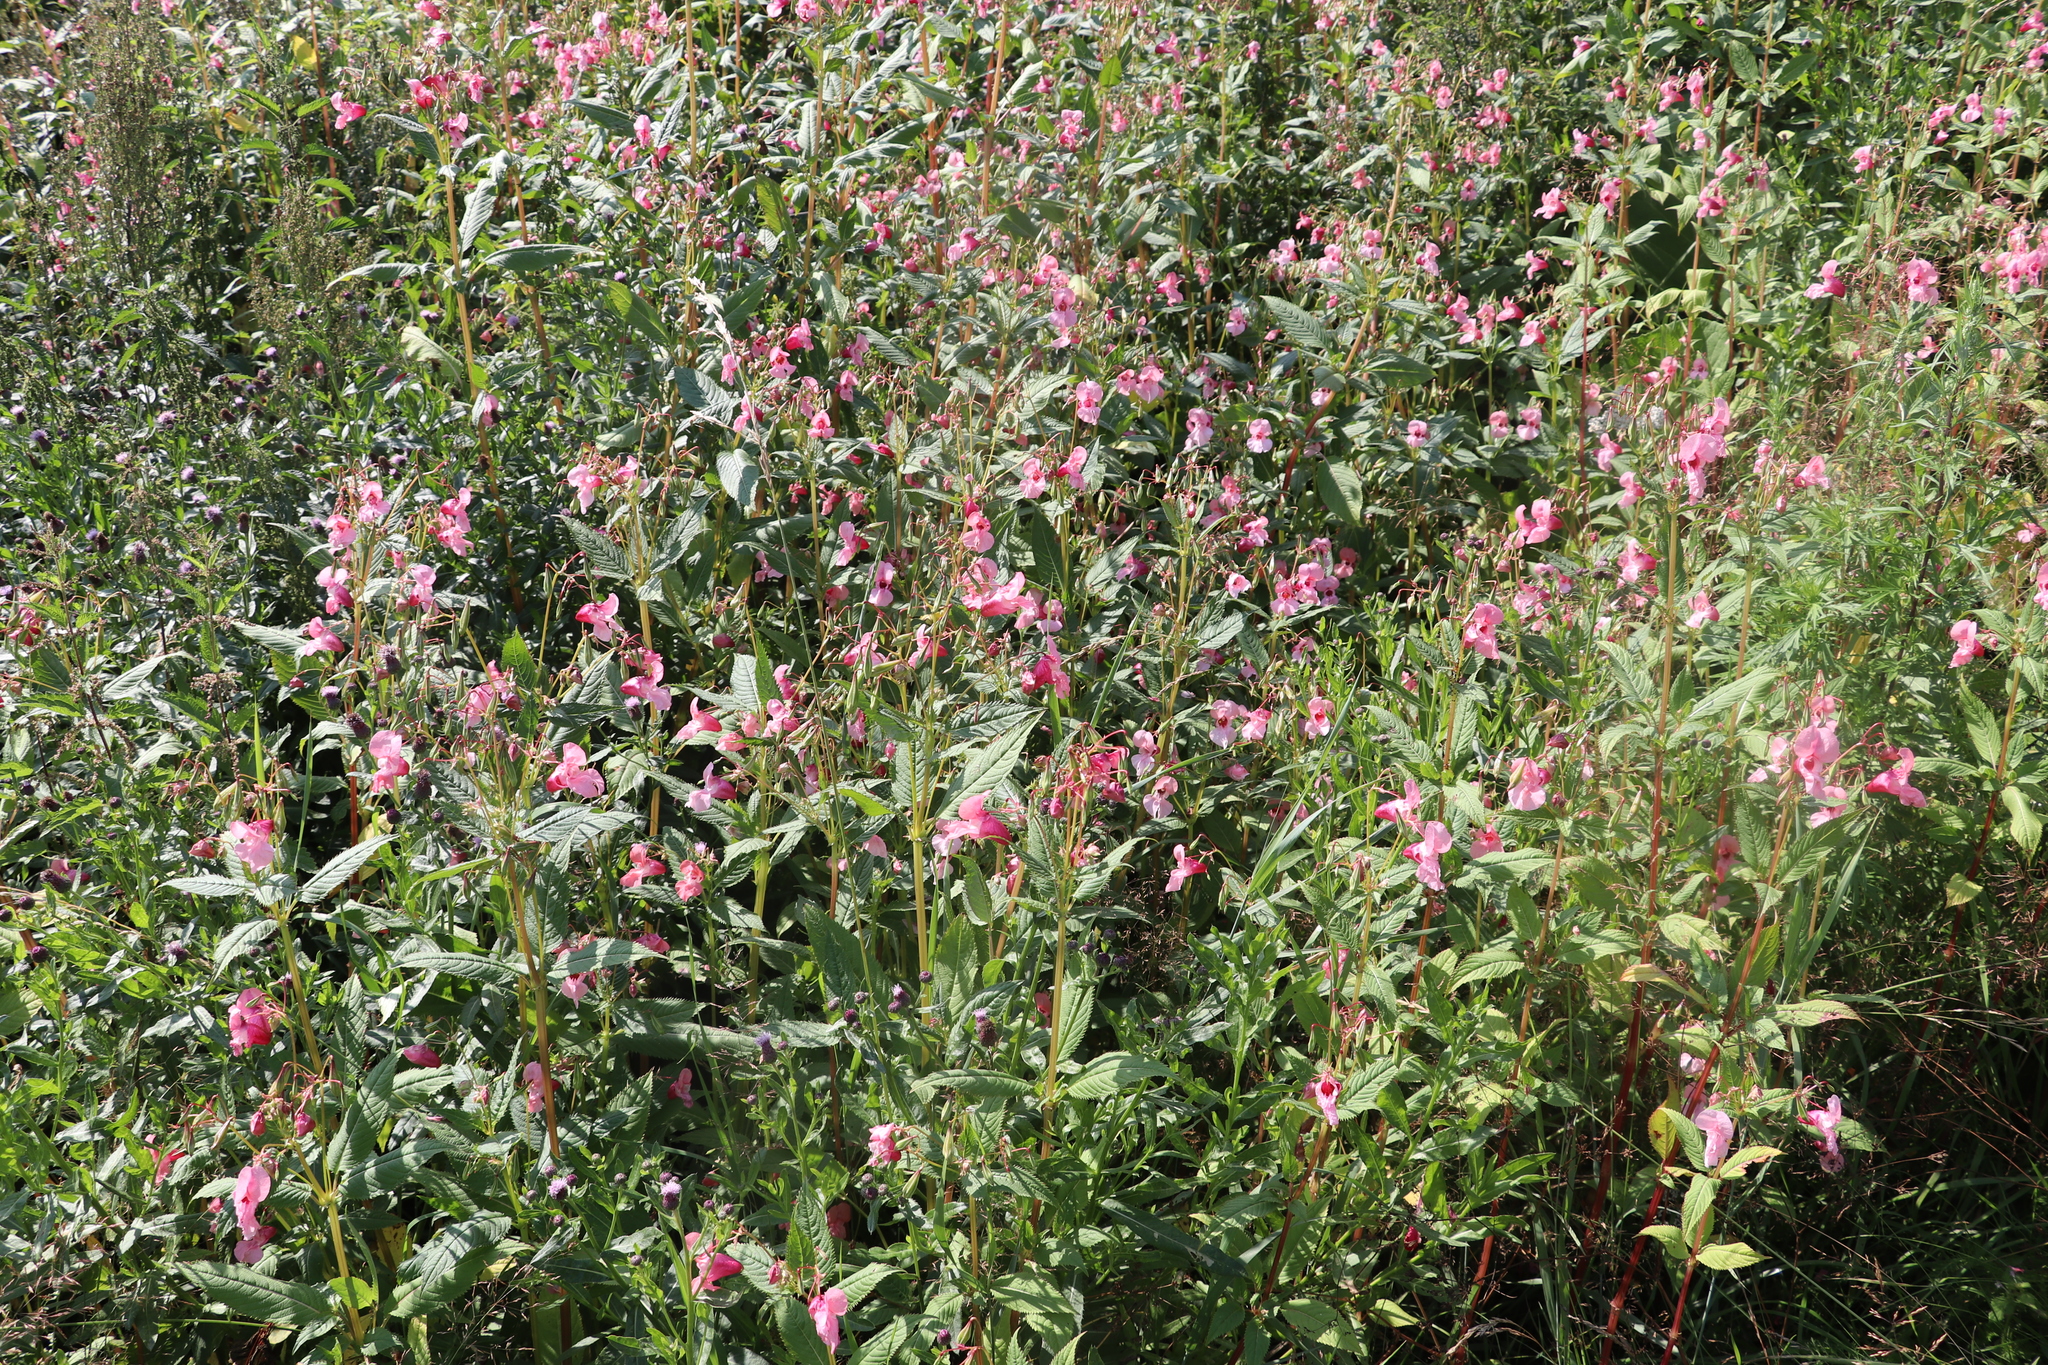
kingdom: Plantae
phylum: Tracheophyta
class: Magnoliopsida
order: Ericales
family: Balsaminaceae
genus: Impatiens
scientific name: Impatiens glandulifera
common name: Himalayan balsam
